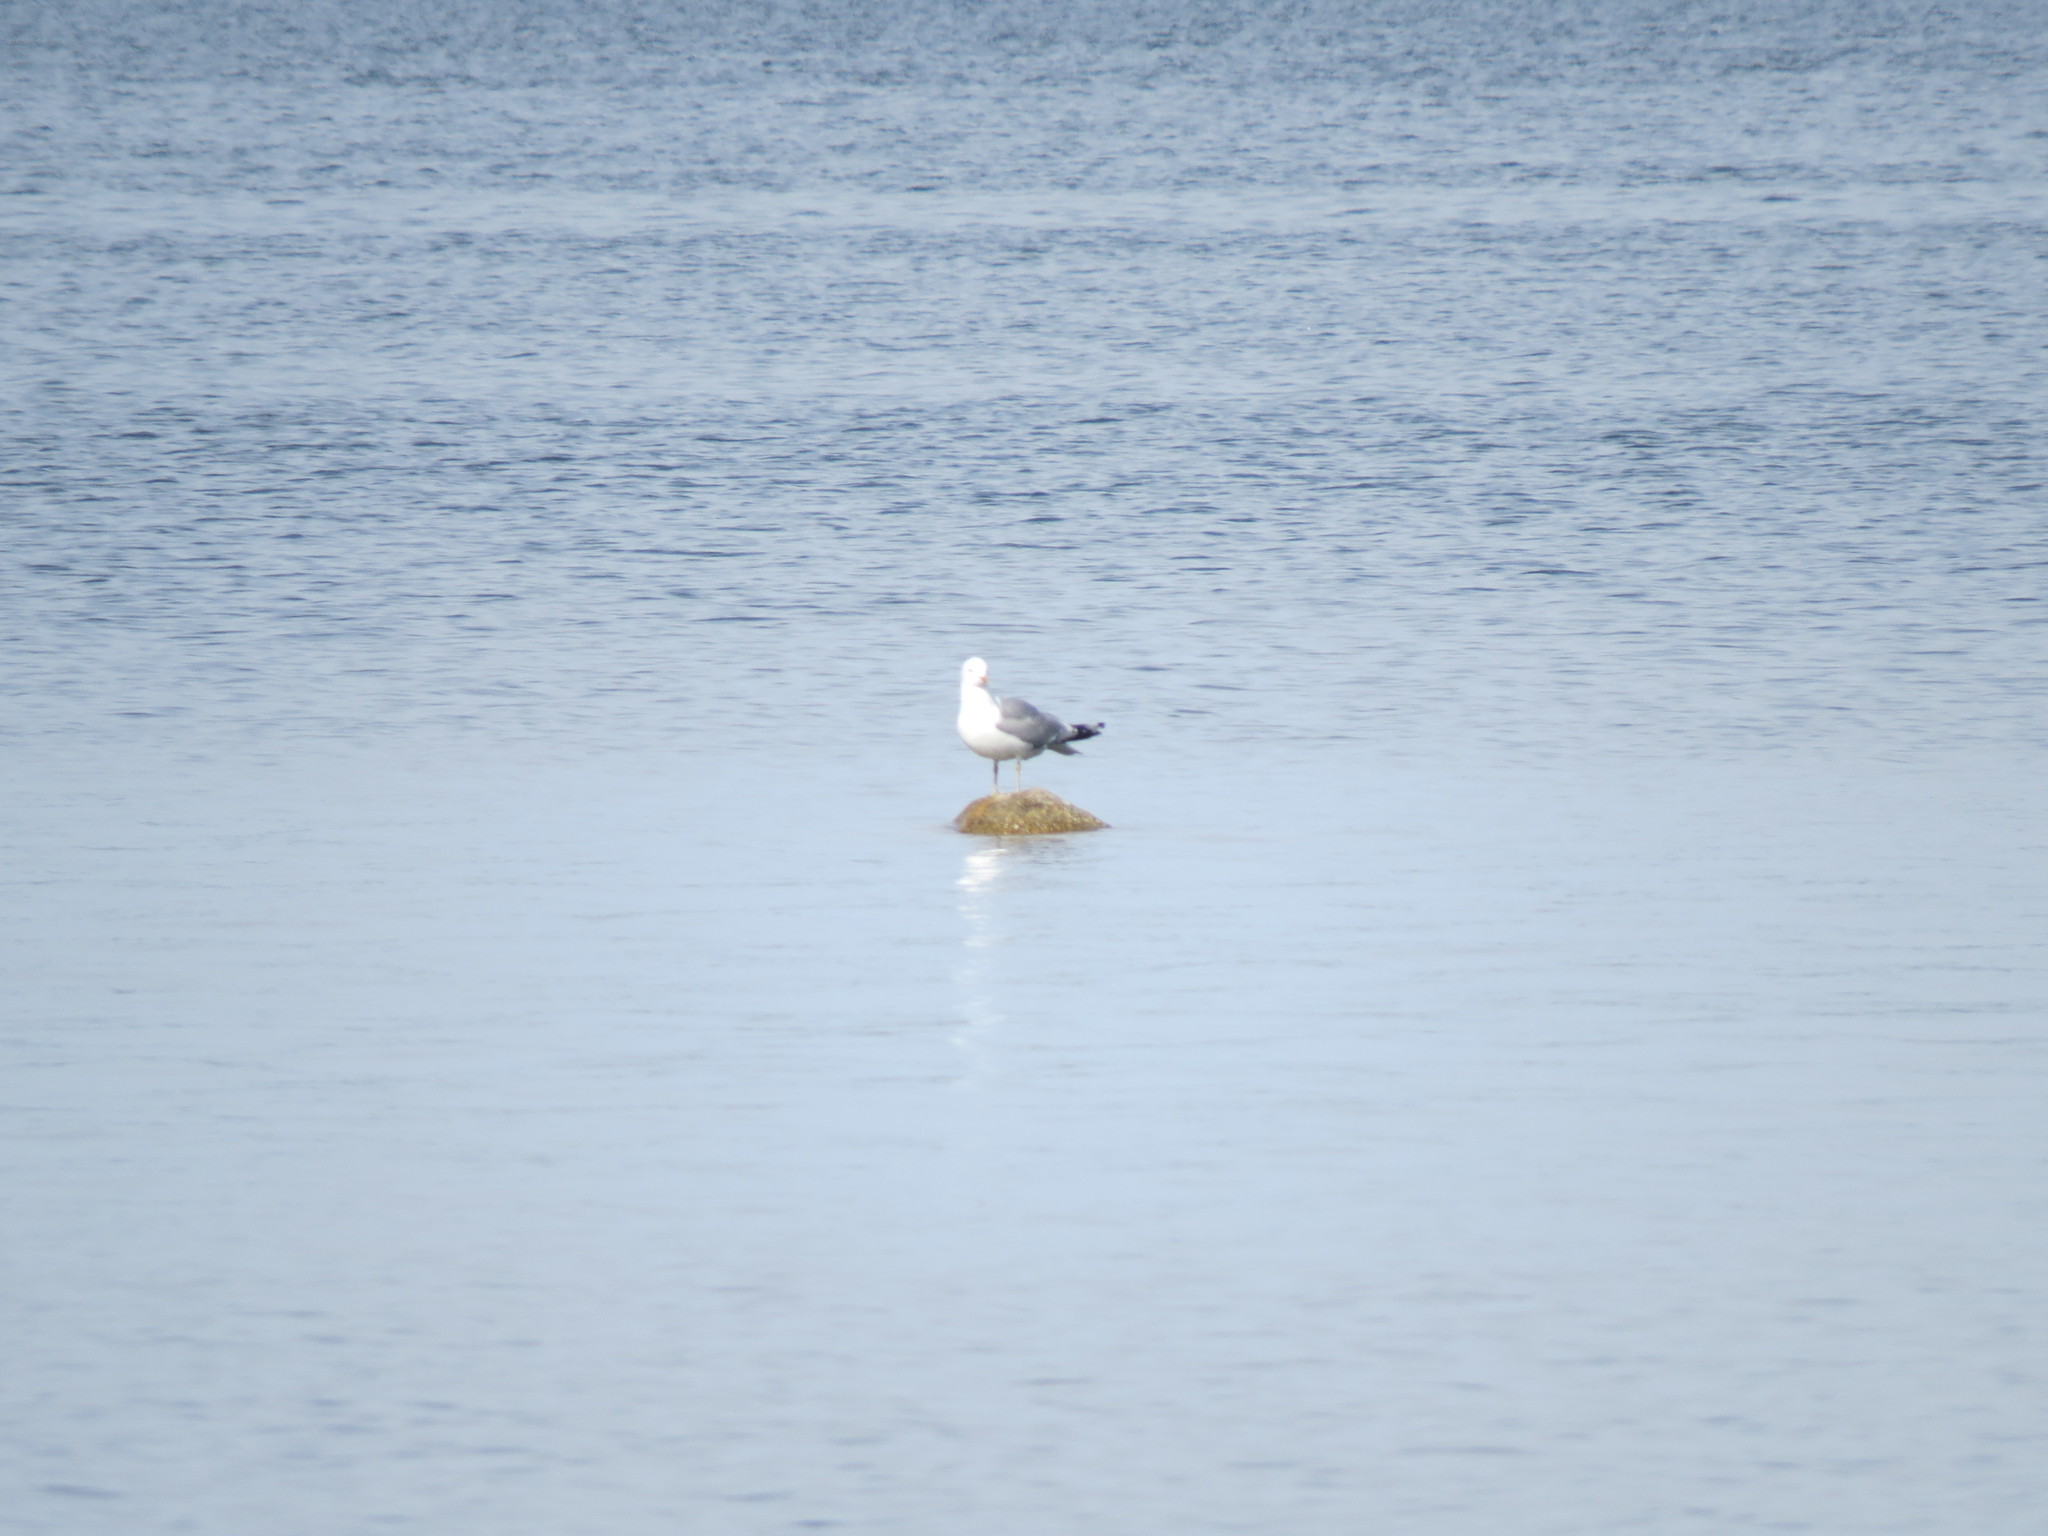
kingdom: Animalia
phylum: Chordata
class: Aves
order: Charadriiformes
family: Laridae
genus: Larus
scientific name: Larus canus
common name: Mew gull
